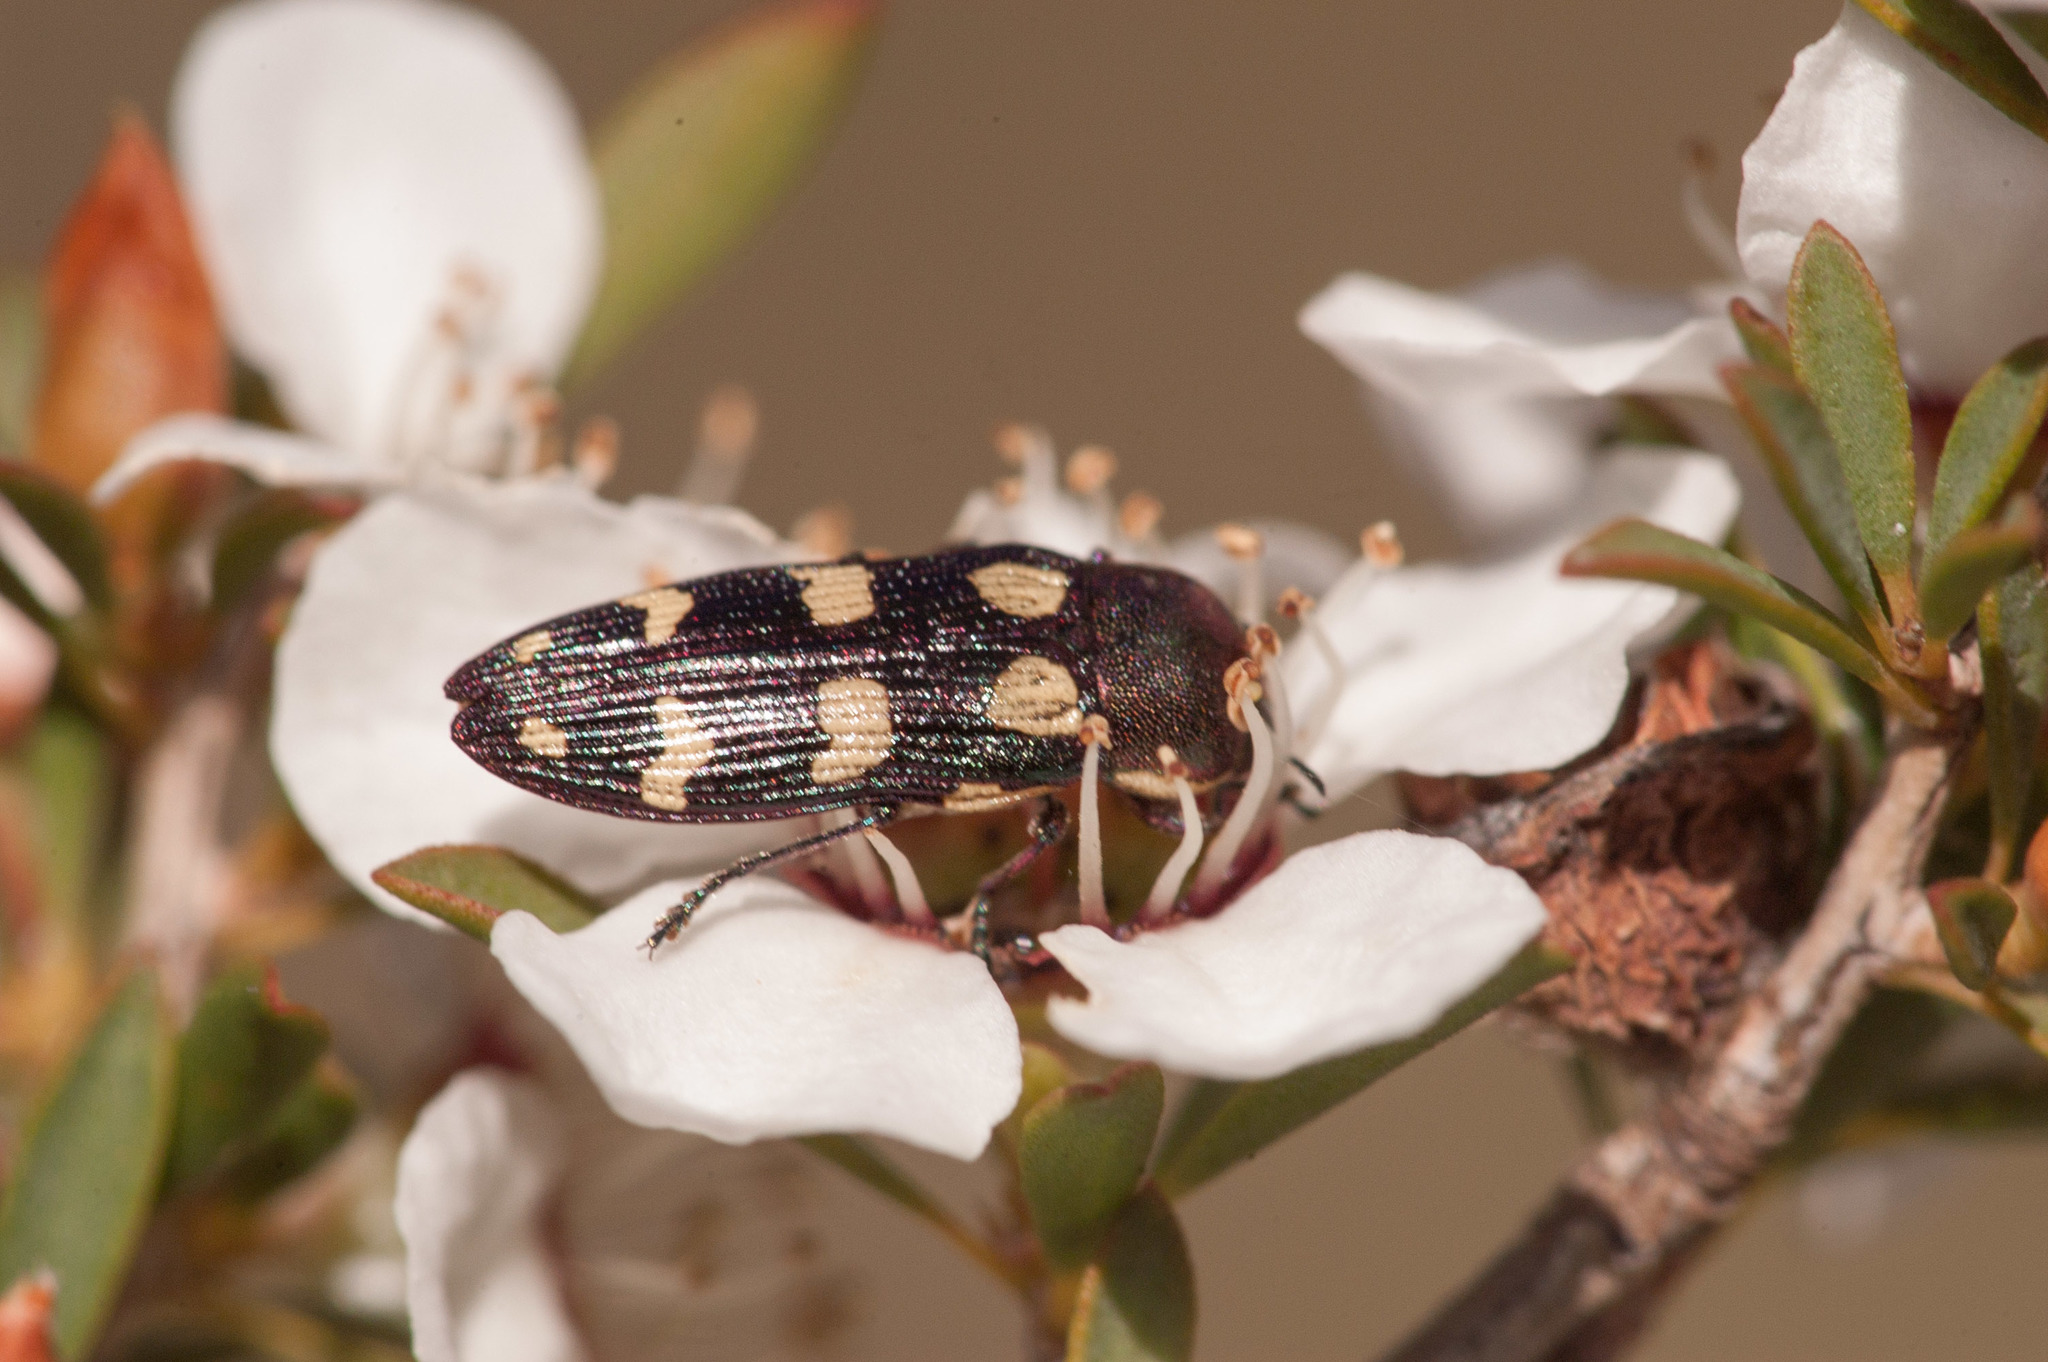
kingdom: Animalia
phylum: Arthropoda
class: Insecta
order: Coleoptera
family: Buprestidae
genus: Castiarina
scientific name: Castiarina decemmaculata
